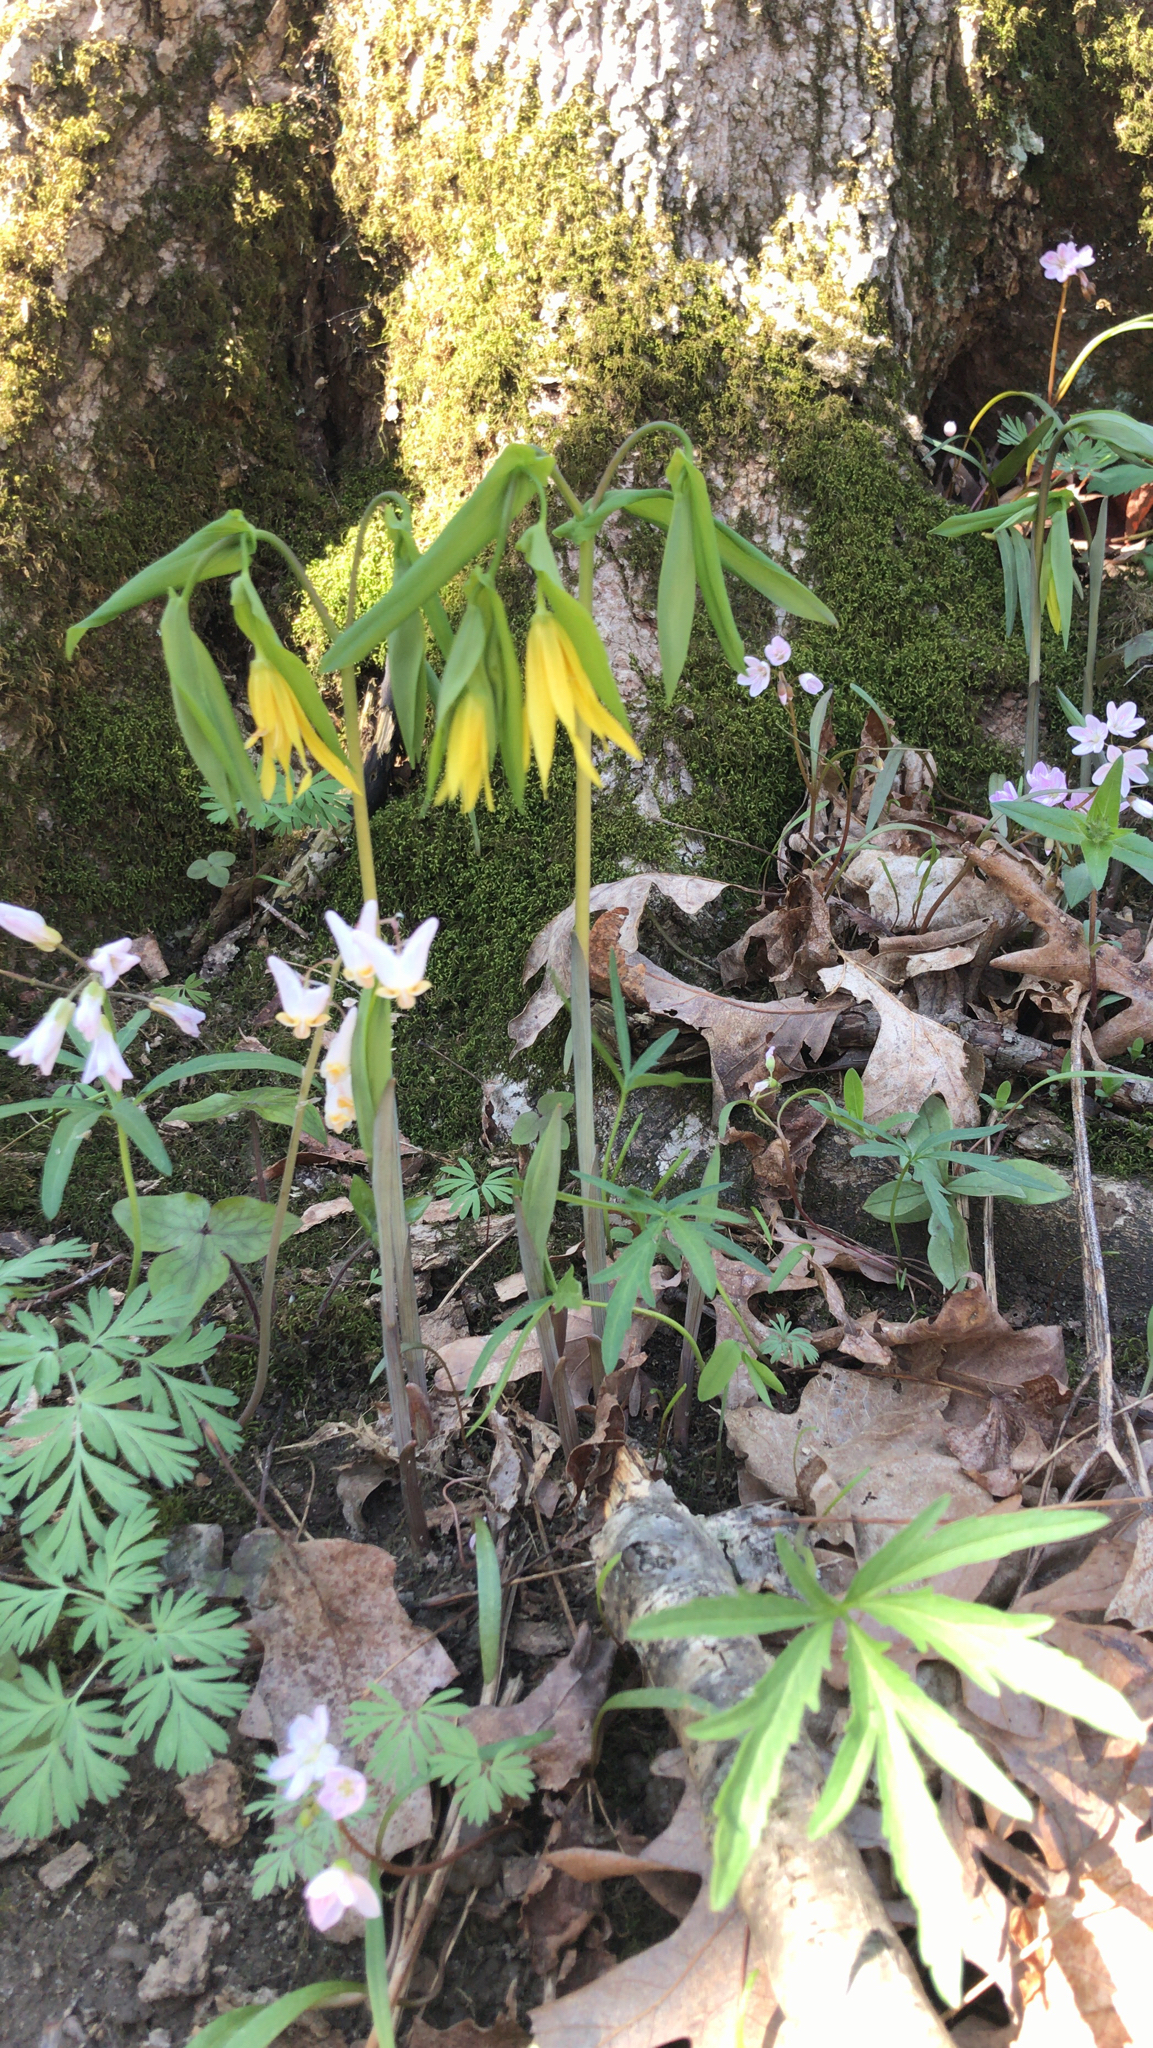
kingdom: Plantae
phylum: Tracheophyta
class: Liliopsida
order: Liliales
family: Colchicaceae
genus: Uvularia
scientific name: Uvularia grandiflora
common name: Bellwort
